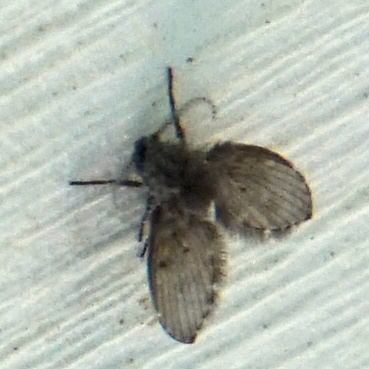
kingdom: Animalia
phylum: Arthropoda
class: Insecta
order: Diptera
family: Psychodidae
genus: Clogmia
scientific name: Clogmia albipunctatus
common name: White-spotted moth fly
